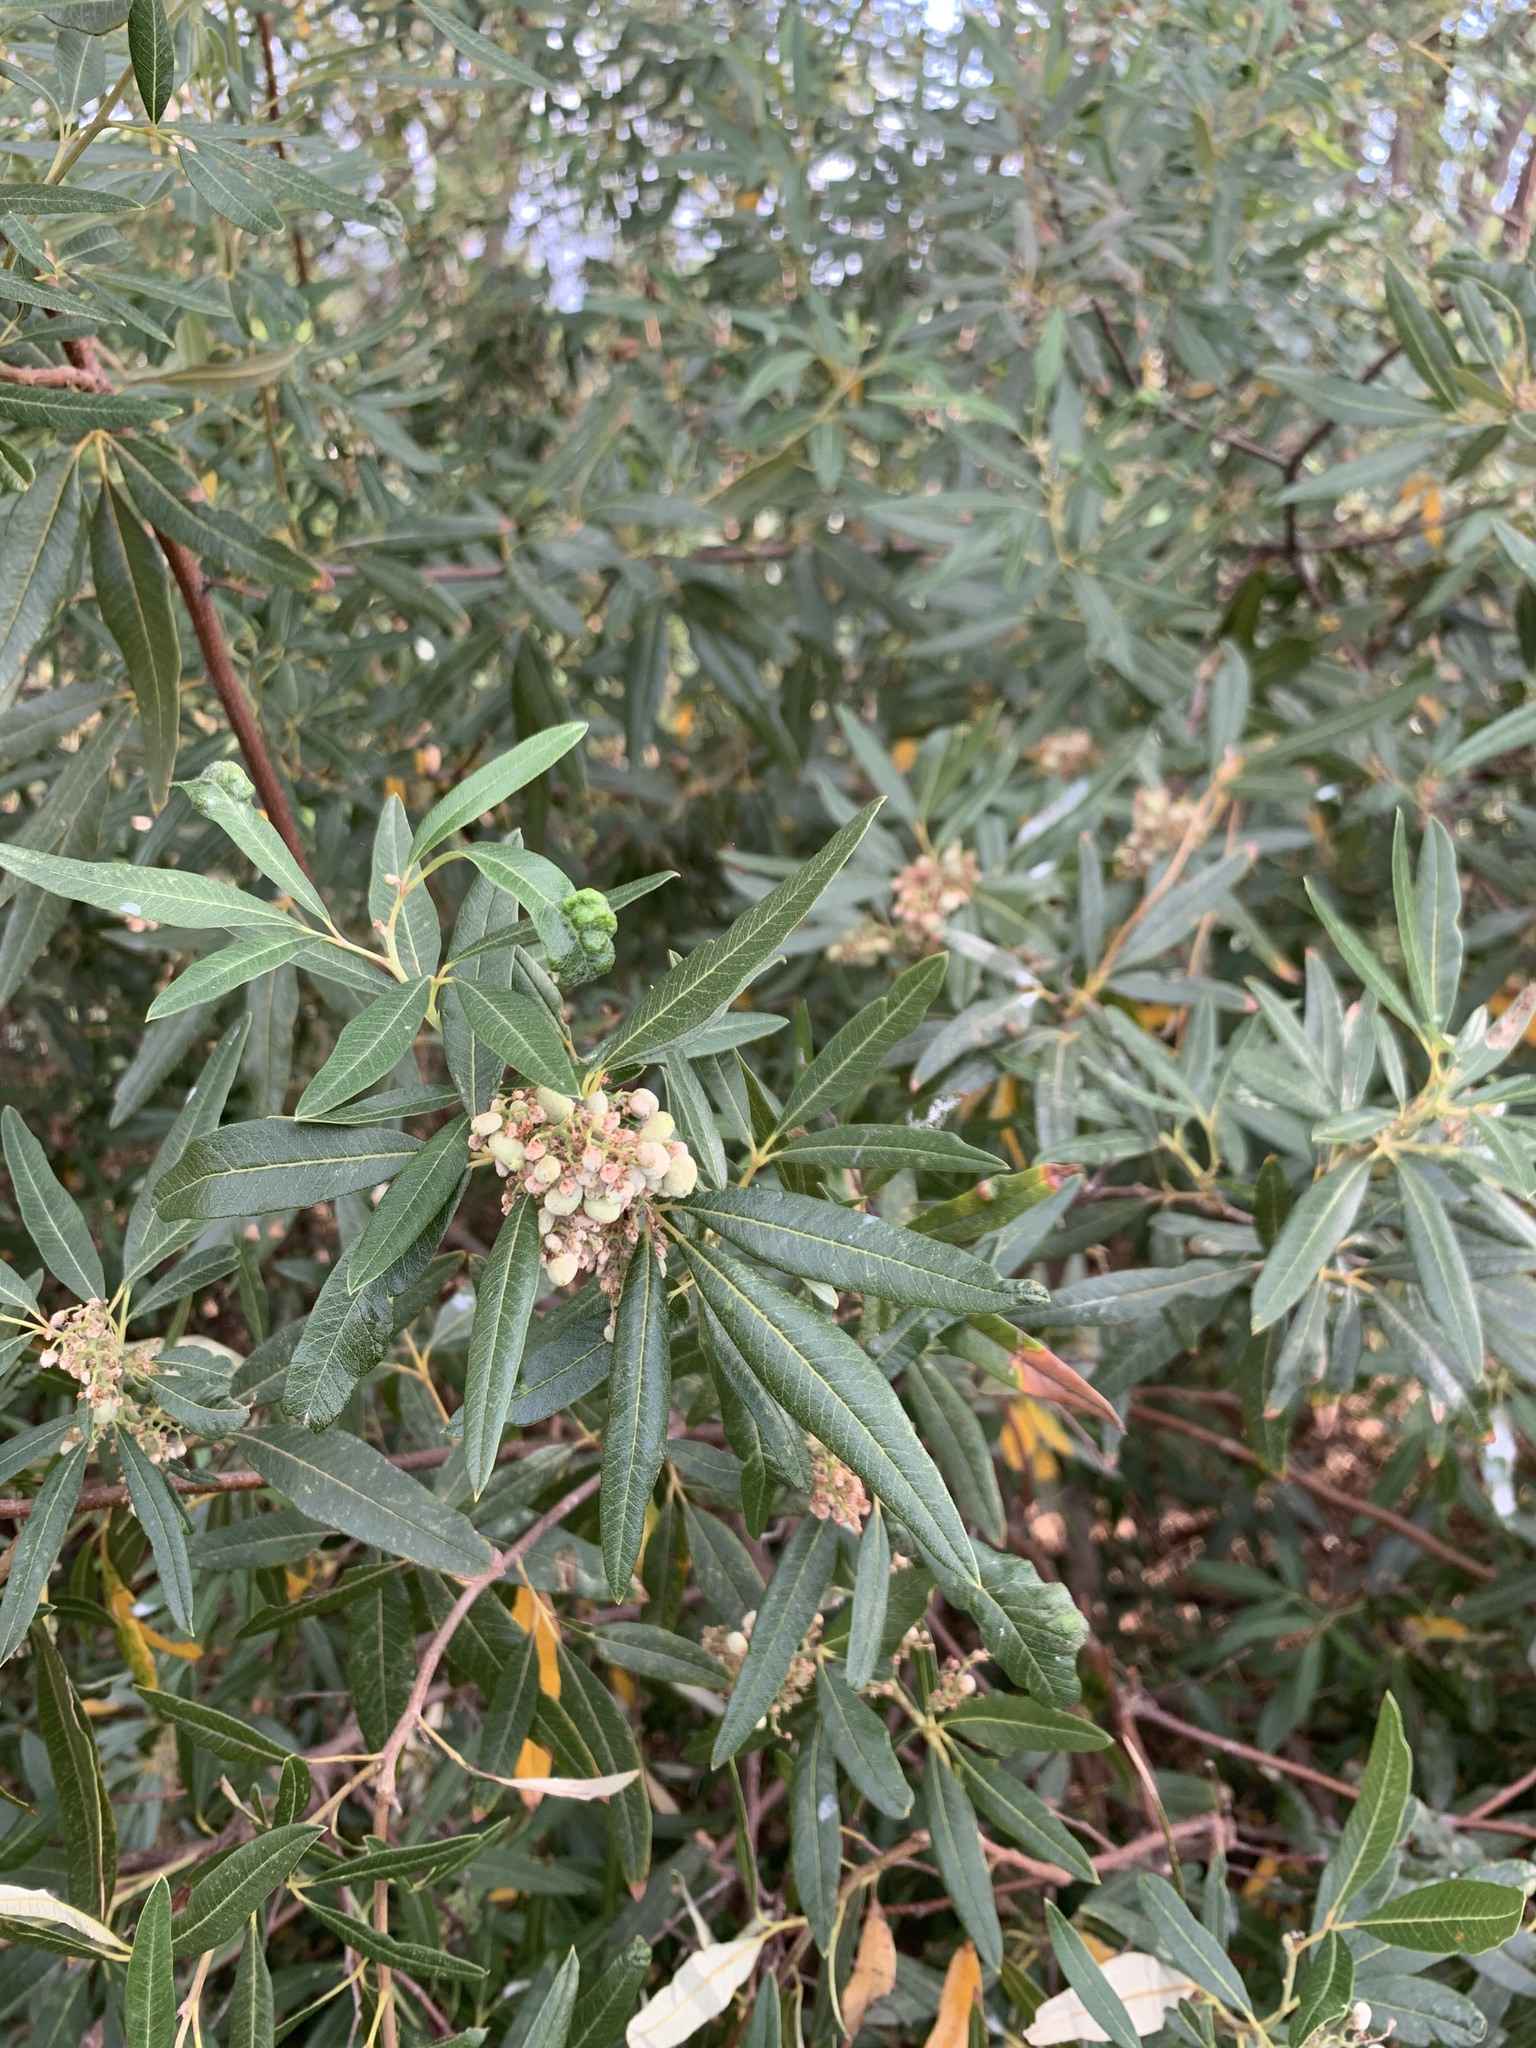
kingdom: Plantae
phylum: Tracheophyta
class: Magnoliopsida
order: Sapindales
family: Anacardiaceae
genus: Searsia
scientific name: Searsia angustifolia
